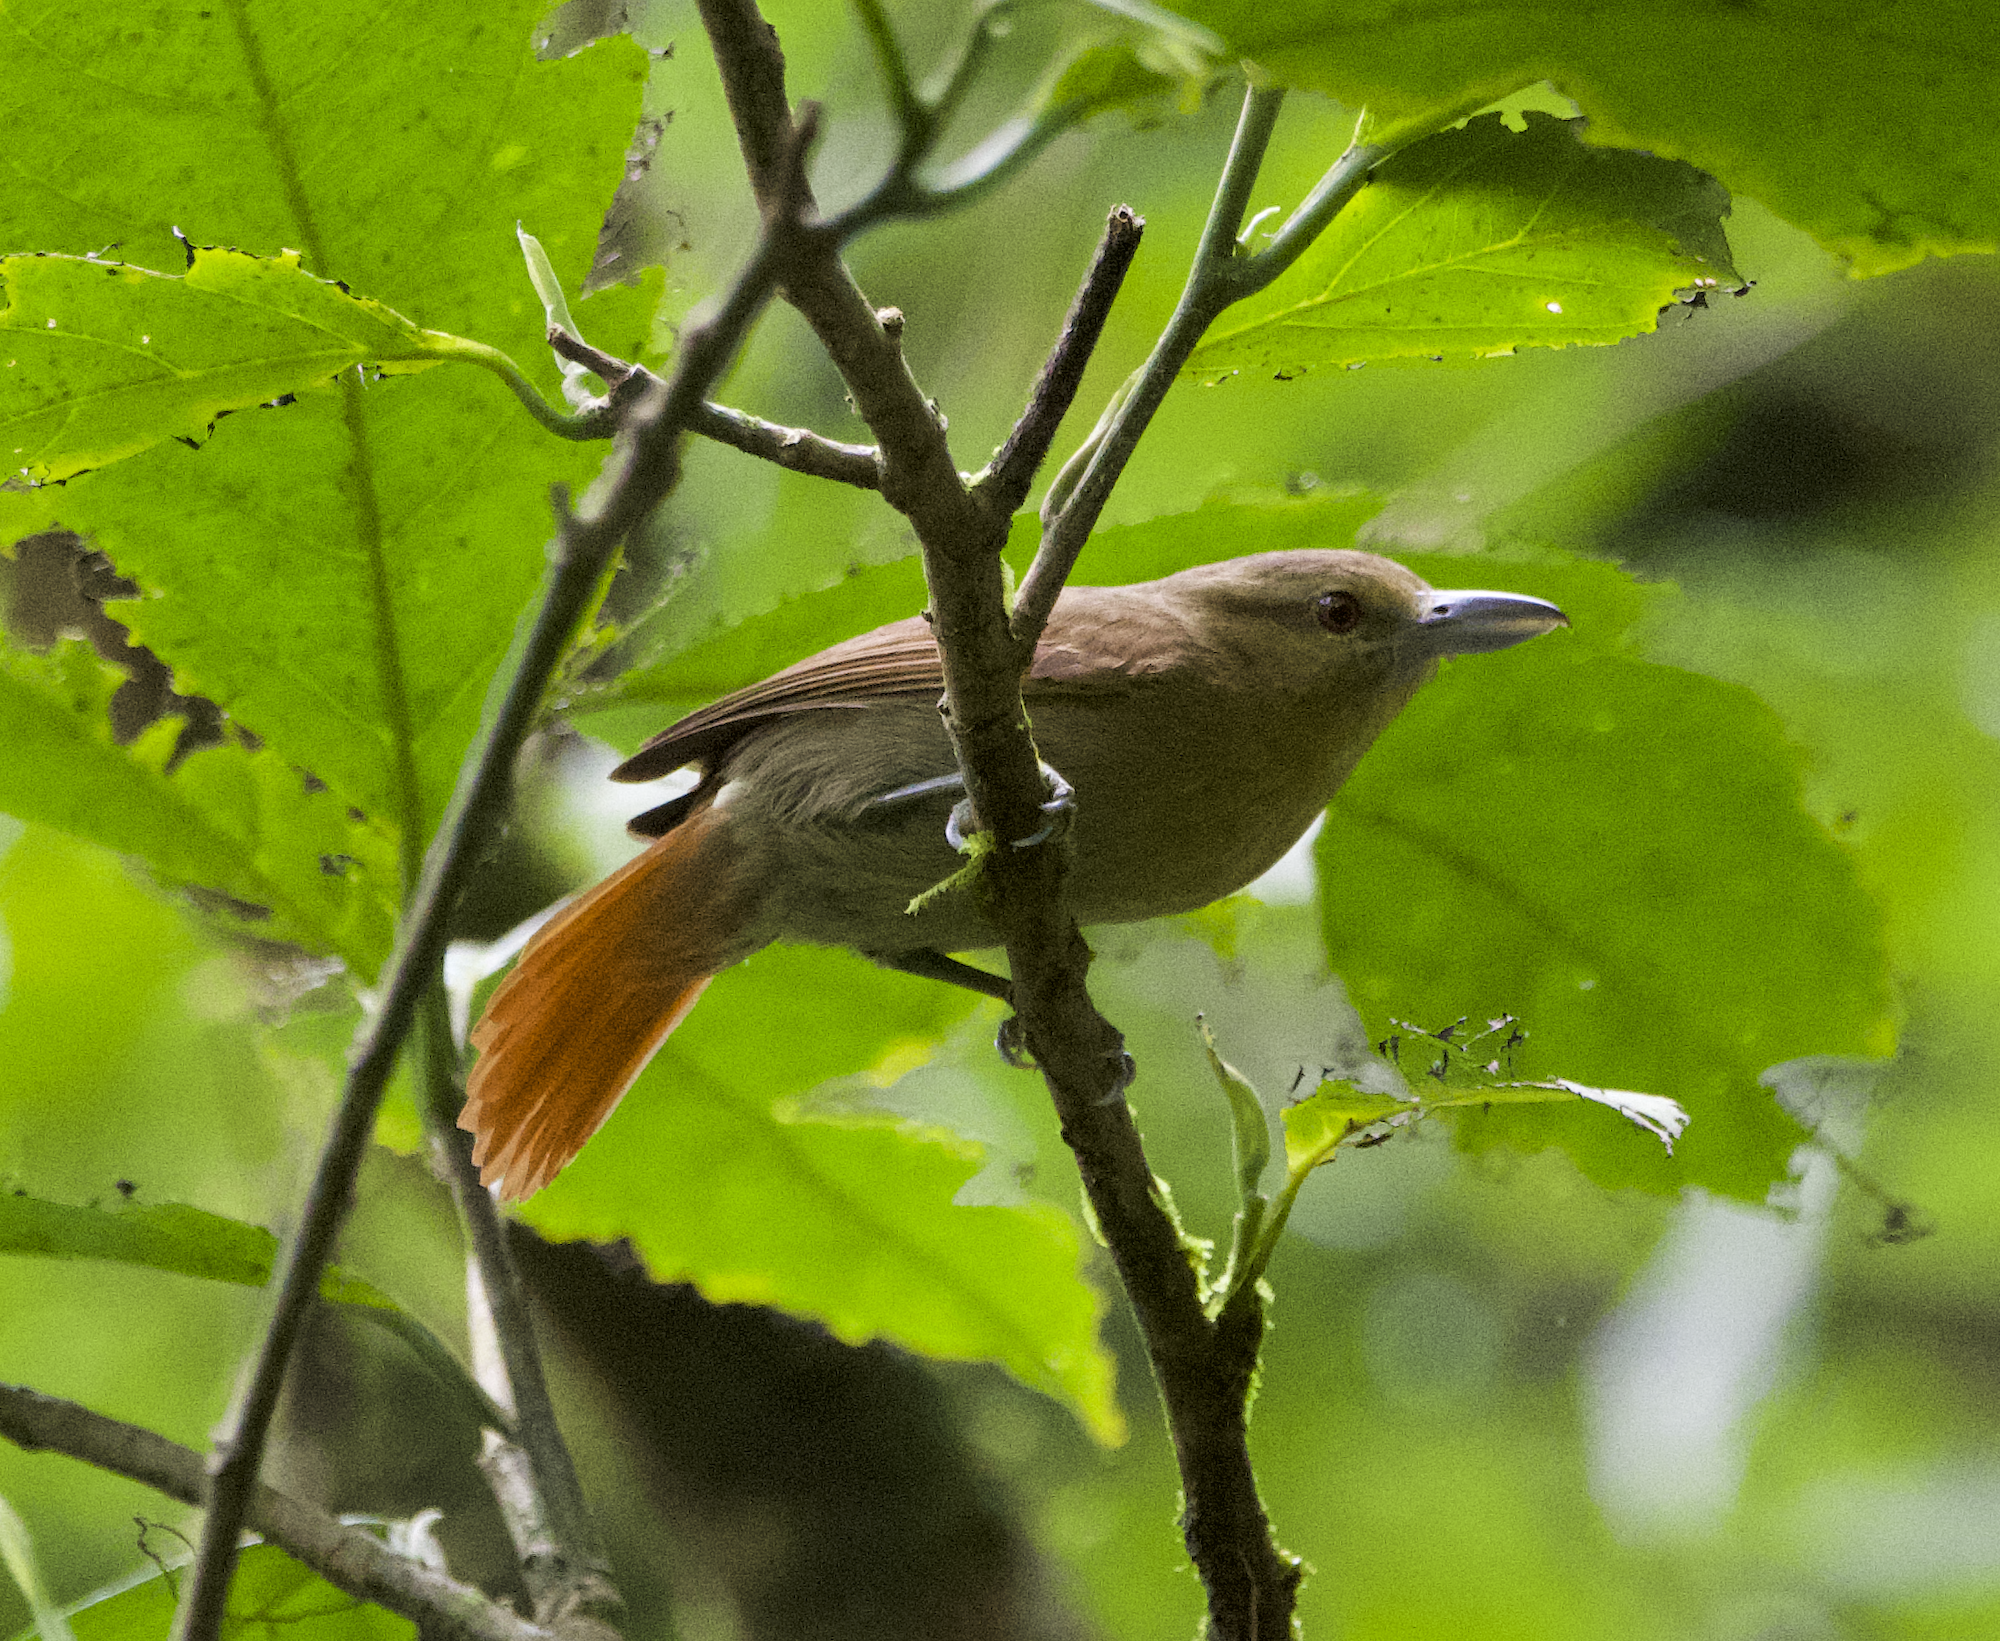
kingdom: Animalia
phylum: Chordata
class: Aves
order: Passeriformes
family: Thamnophilidae
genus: Thamnistes
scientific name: Thamnistes anabatinus
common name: Russet antshrike
